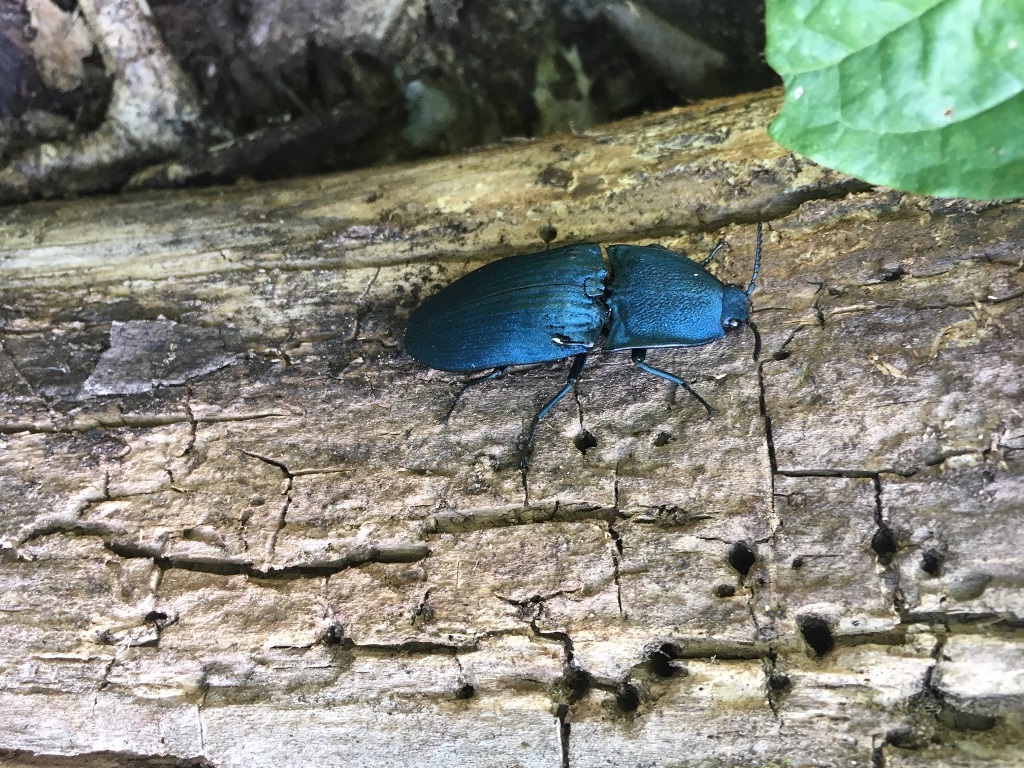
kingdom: Animalia
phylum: Arthropoda
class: Insecta
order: Coleoptera
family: Elateridae
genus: Chalcolepidius
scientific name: Chalcolepidius lacordairei
